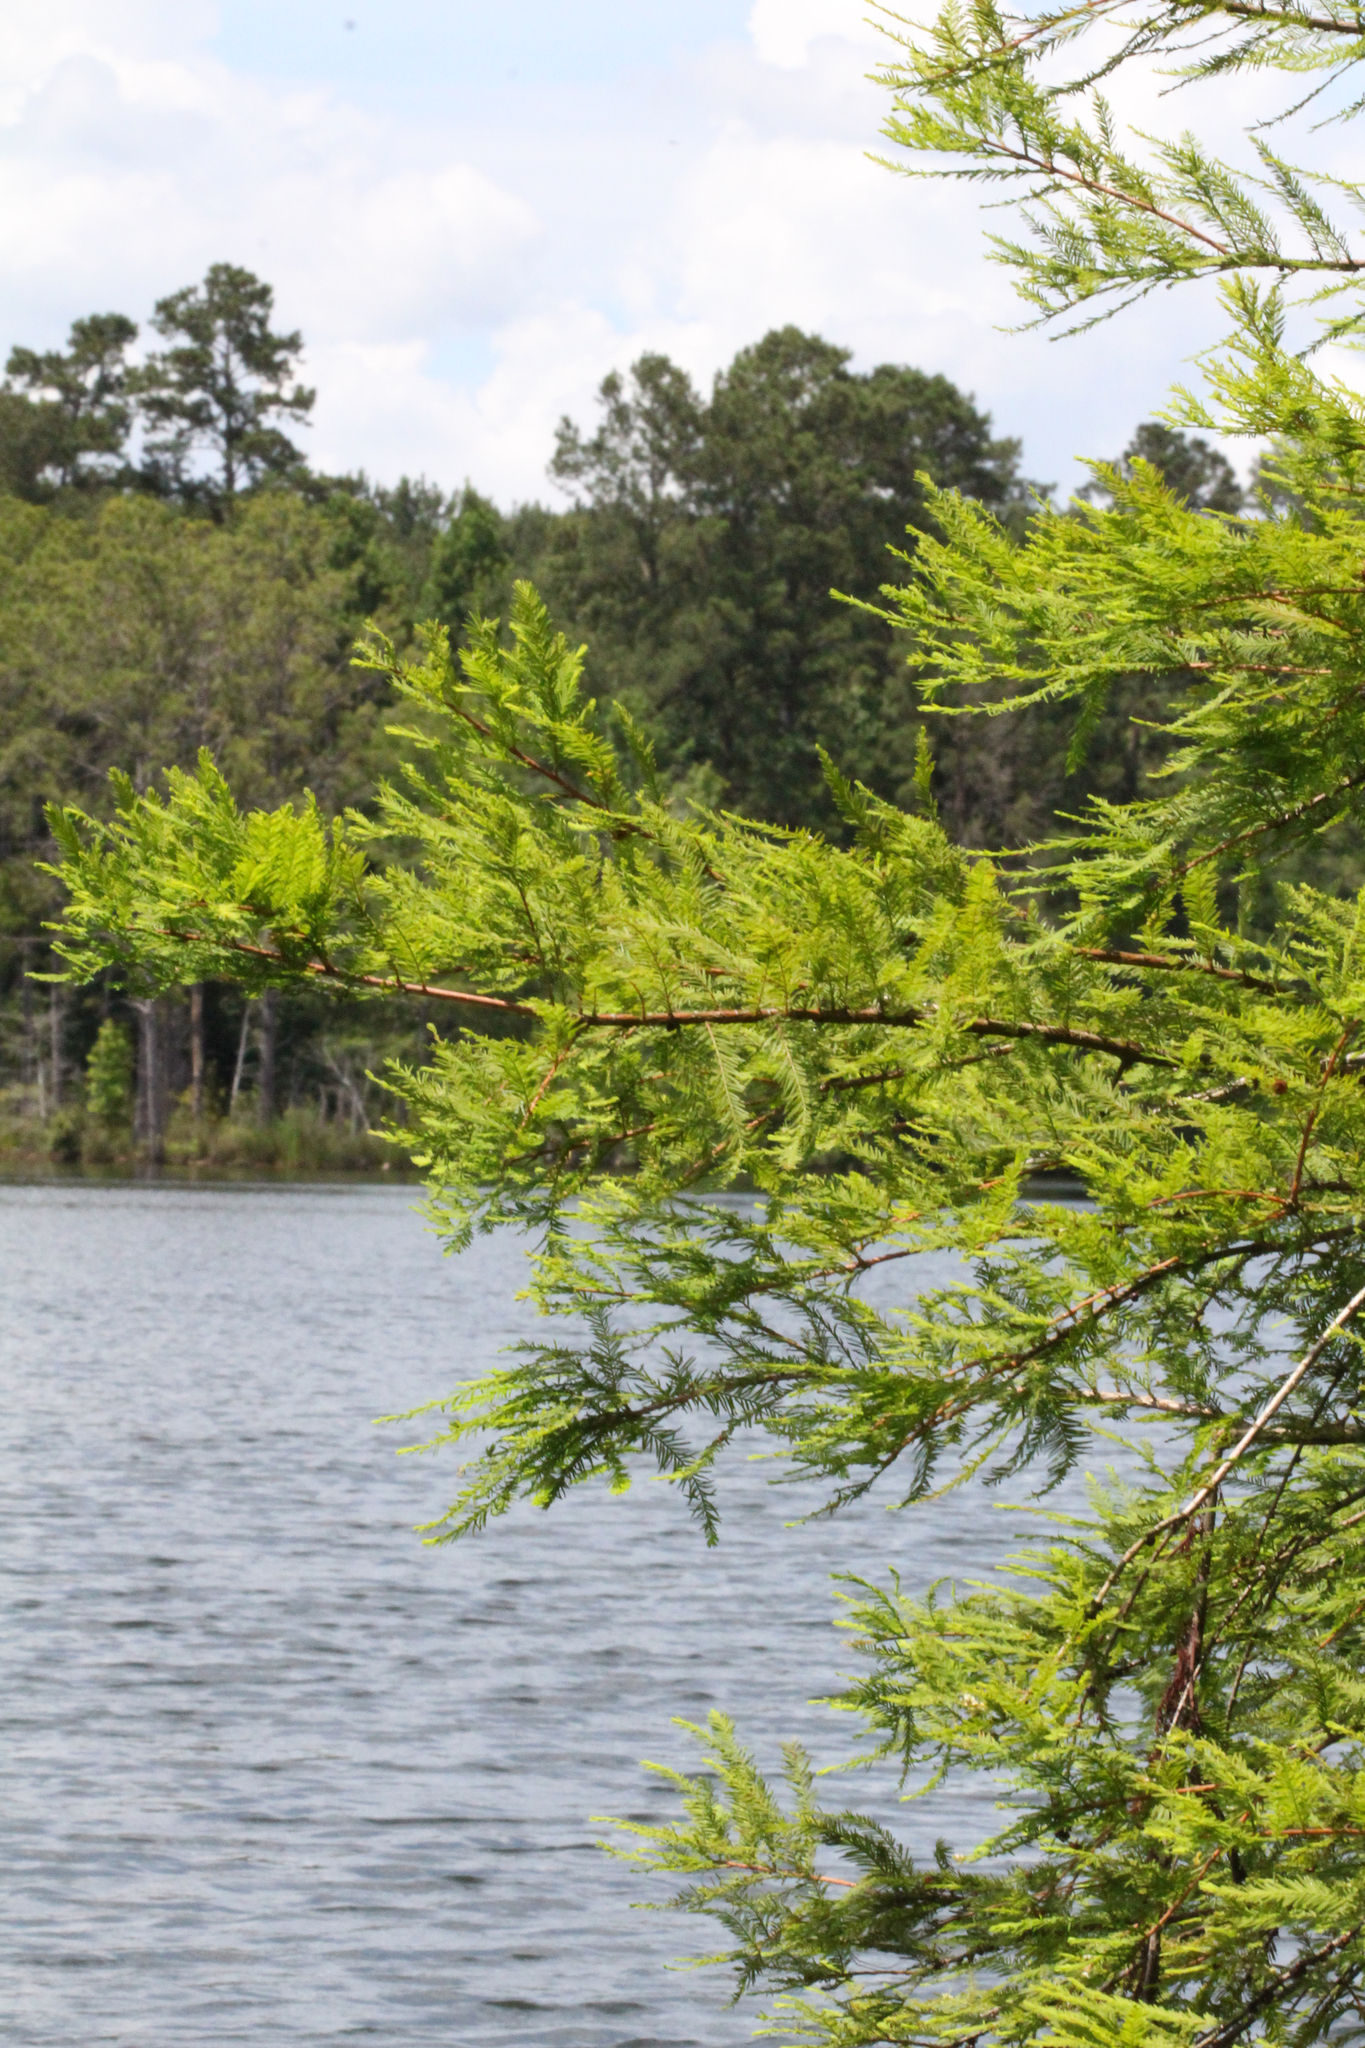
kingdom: Plantae
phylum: Tracheophyta
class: Pinopsida
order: Pinales
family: Cupressaceae
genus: Taxodium
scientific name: Taxodium distichum
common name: Bald cypress
